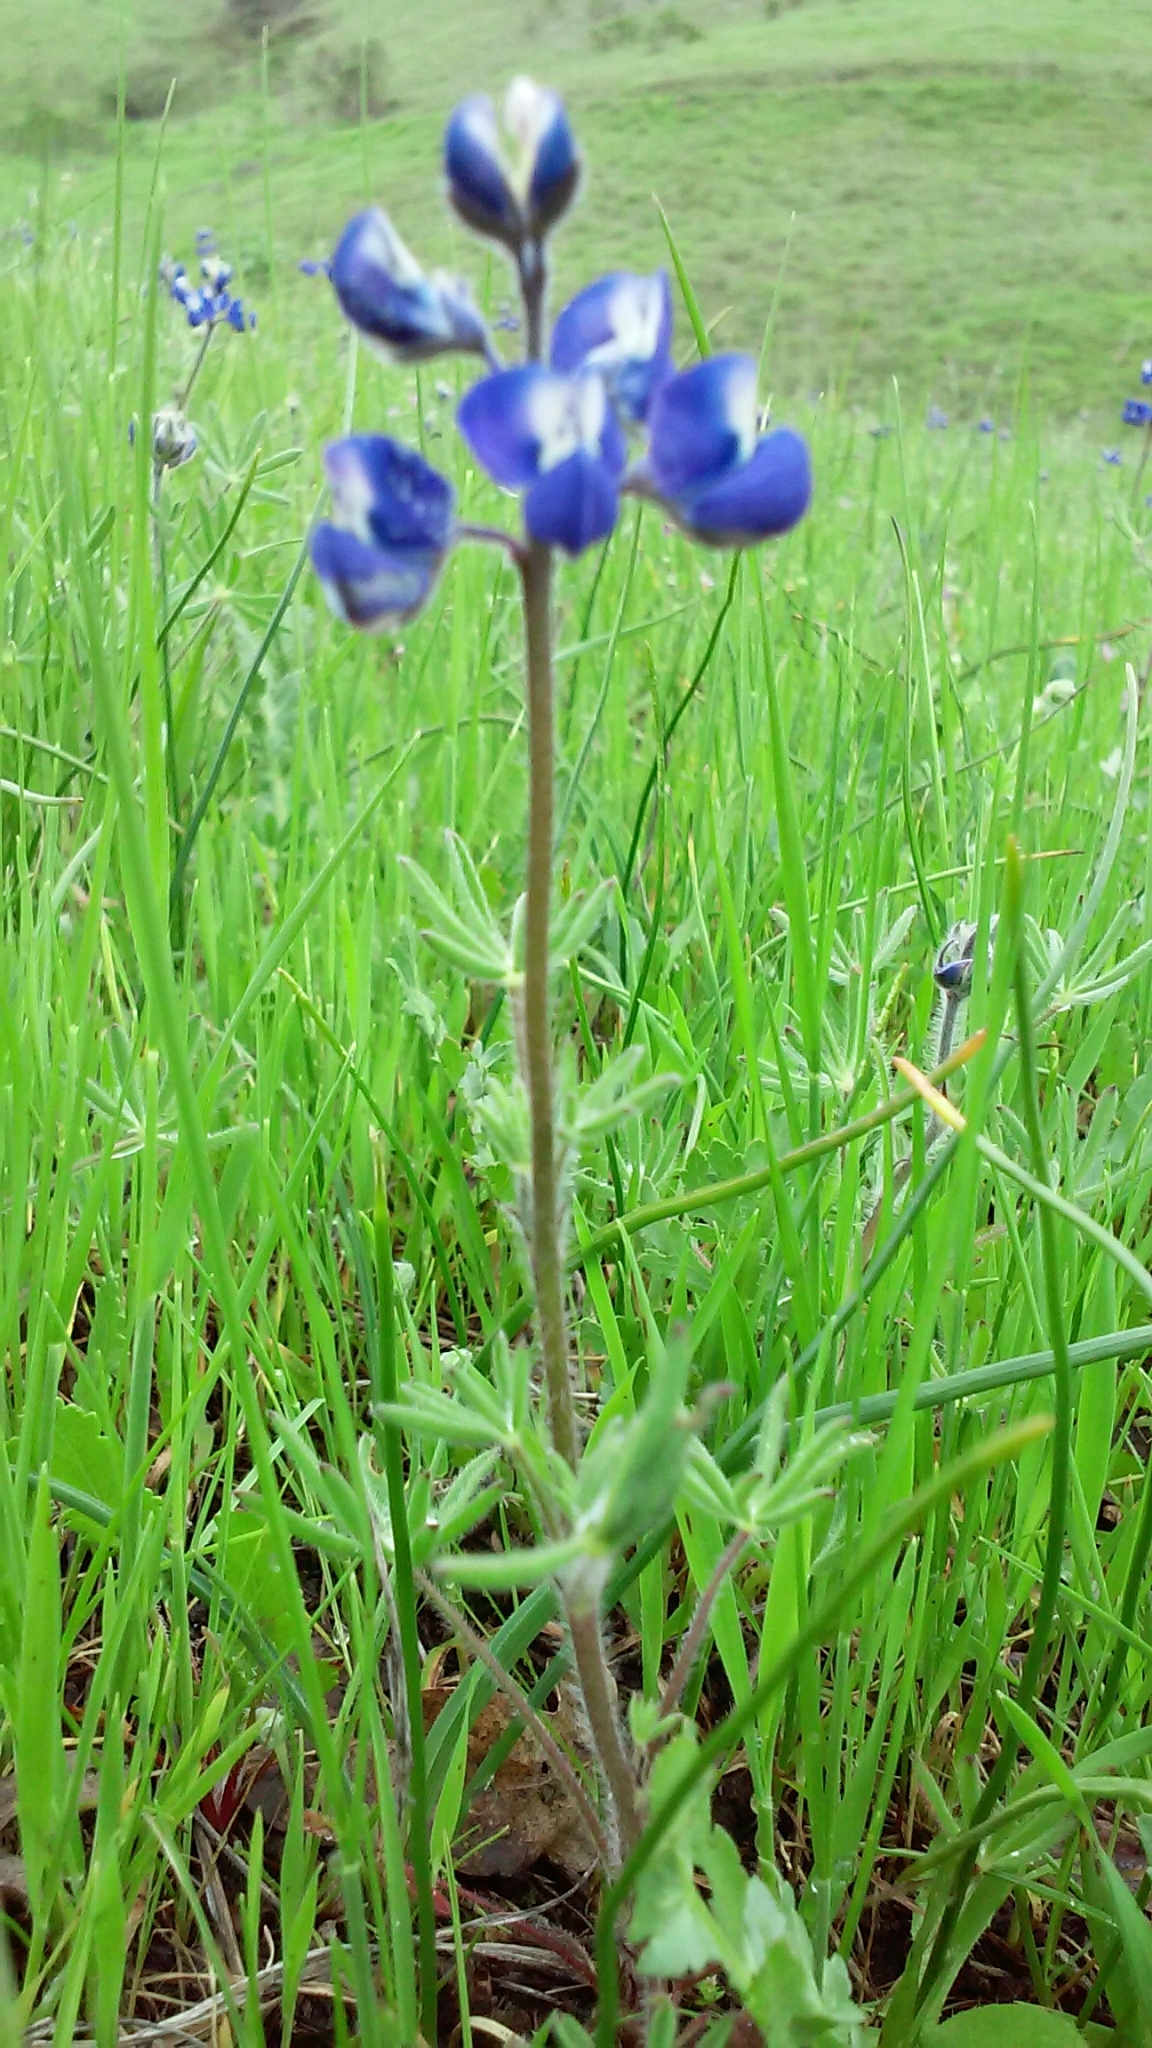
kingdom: Plantae
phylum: Tracheophyta
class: Magnoliopsida
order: Fabales
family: Fabaceae
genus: Lupinus
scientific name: Lupinus bicolor
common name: Miniature lupine
